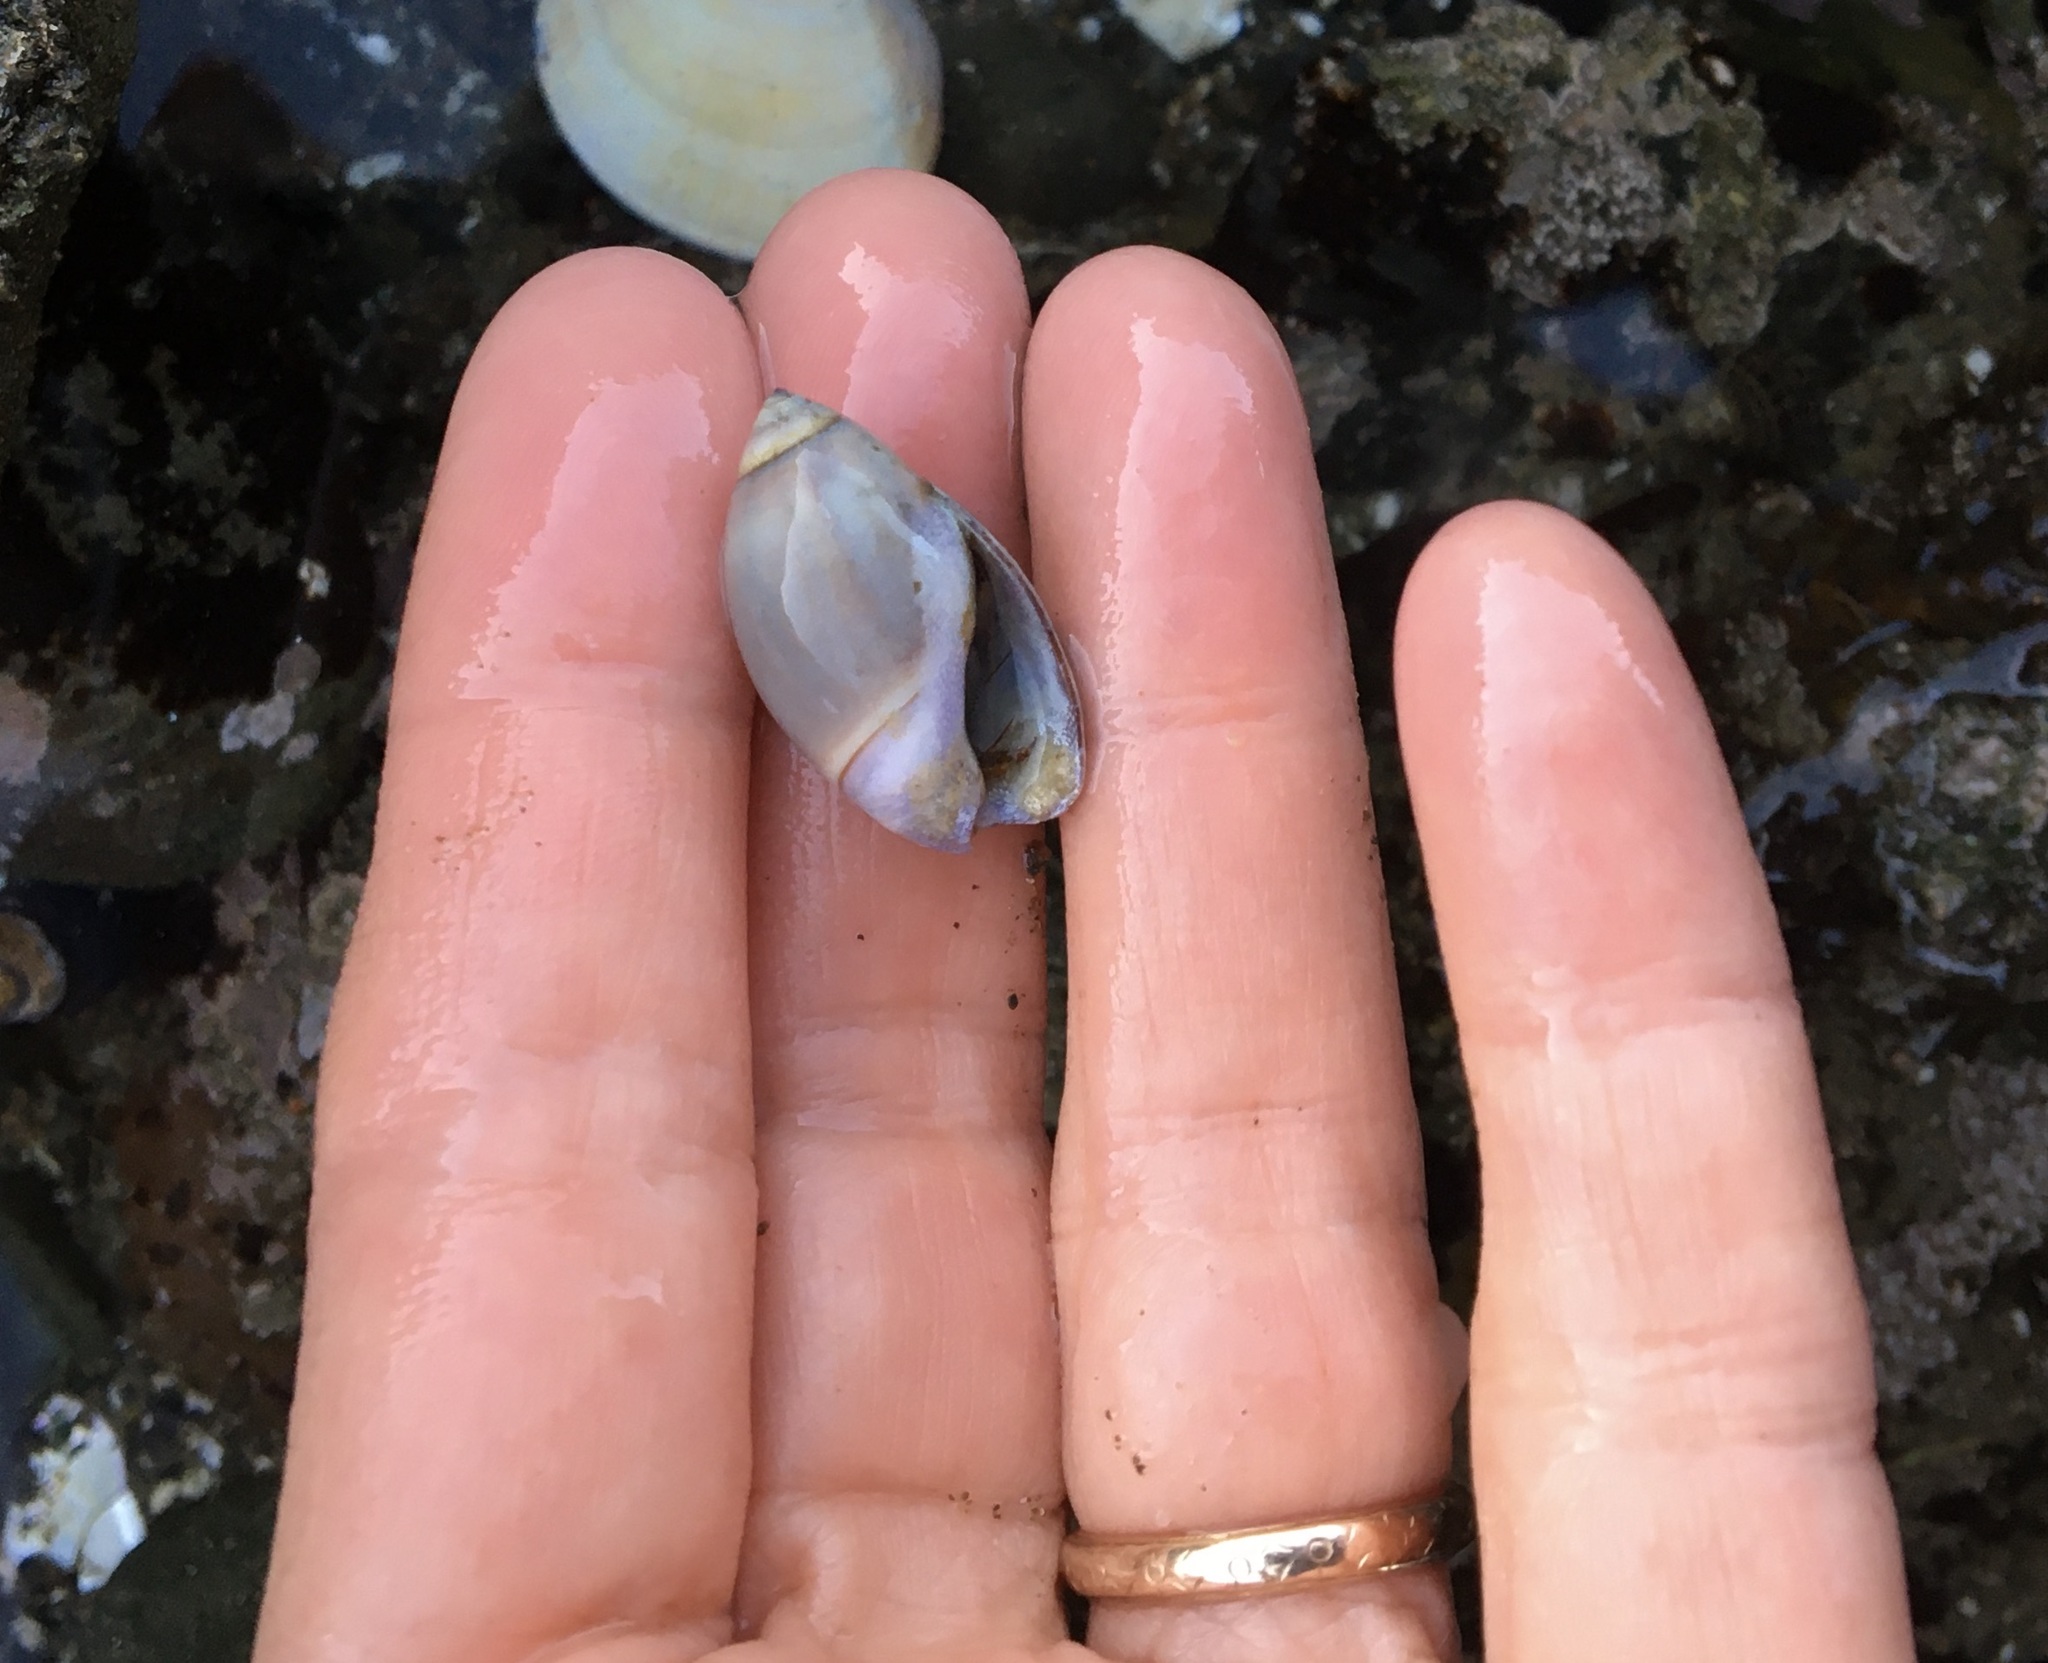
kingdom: Animalia
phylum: Mollusca
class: Gastropoda
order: Neogastropoda
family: Olividae
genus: Callianax
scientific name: Callianax biplicata
